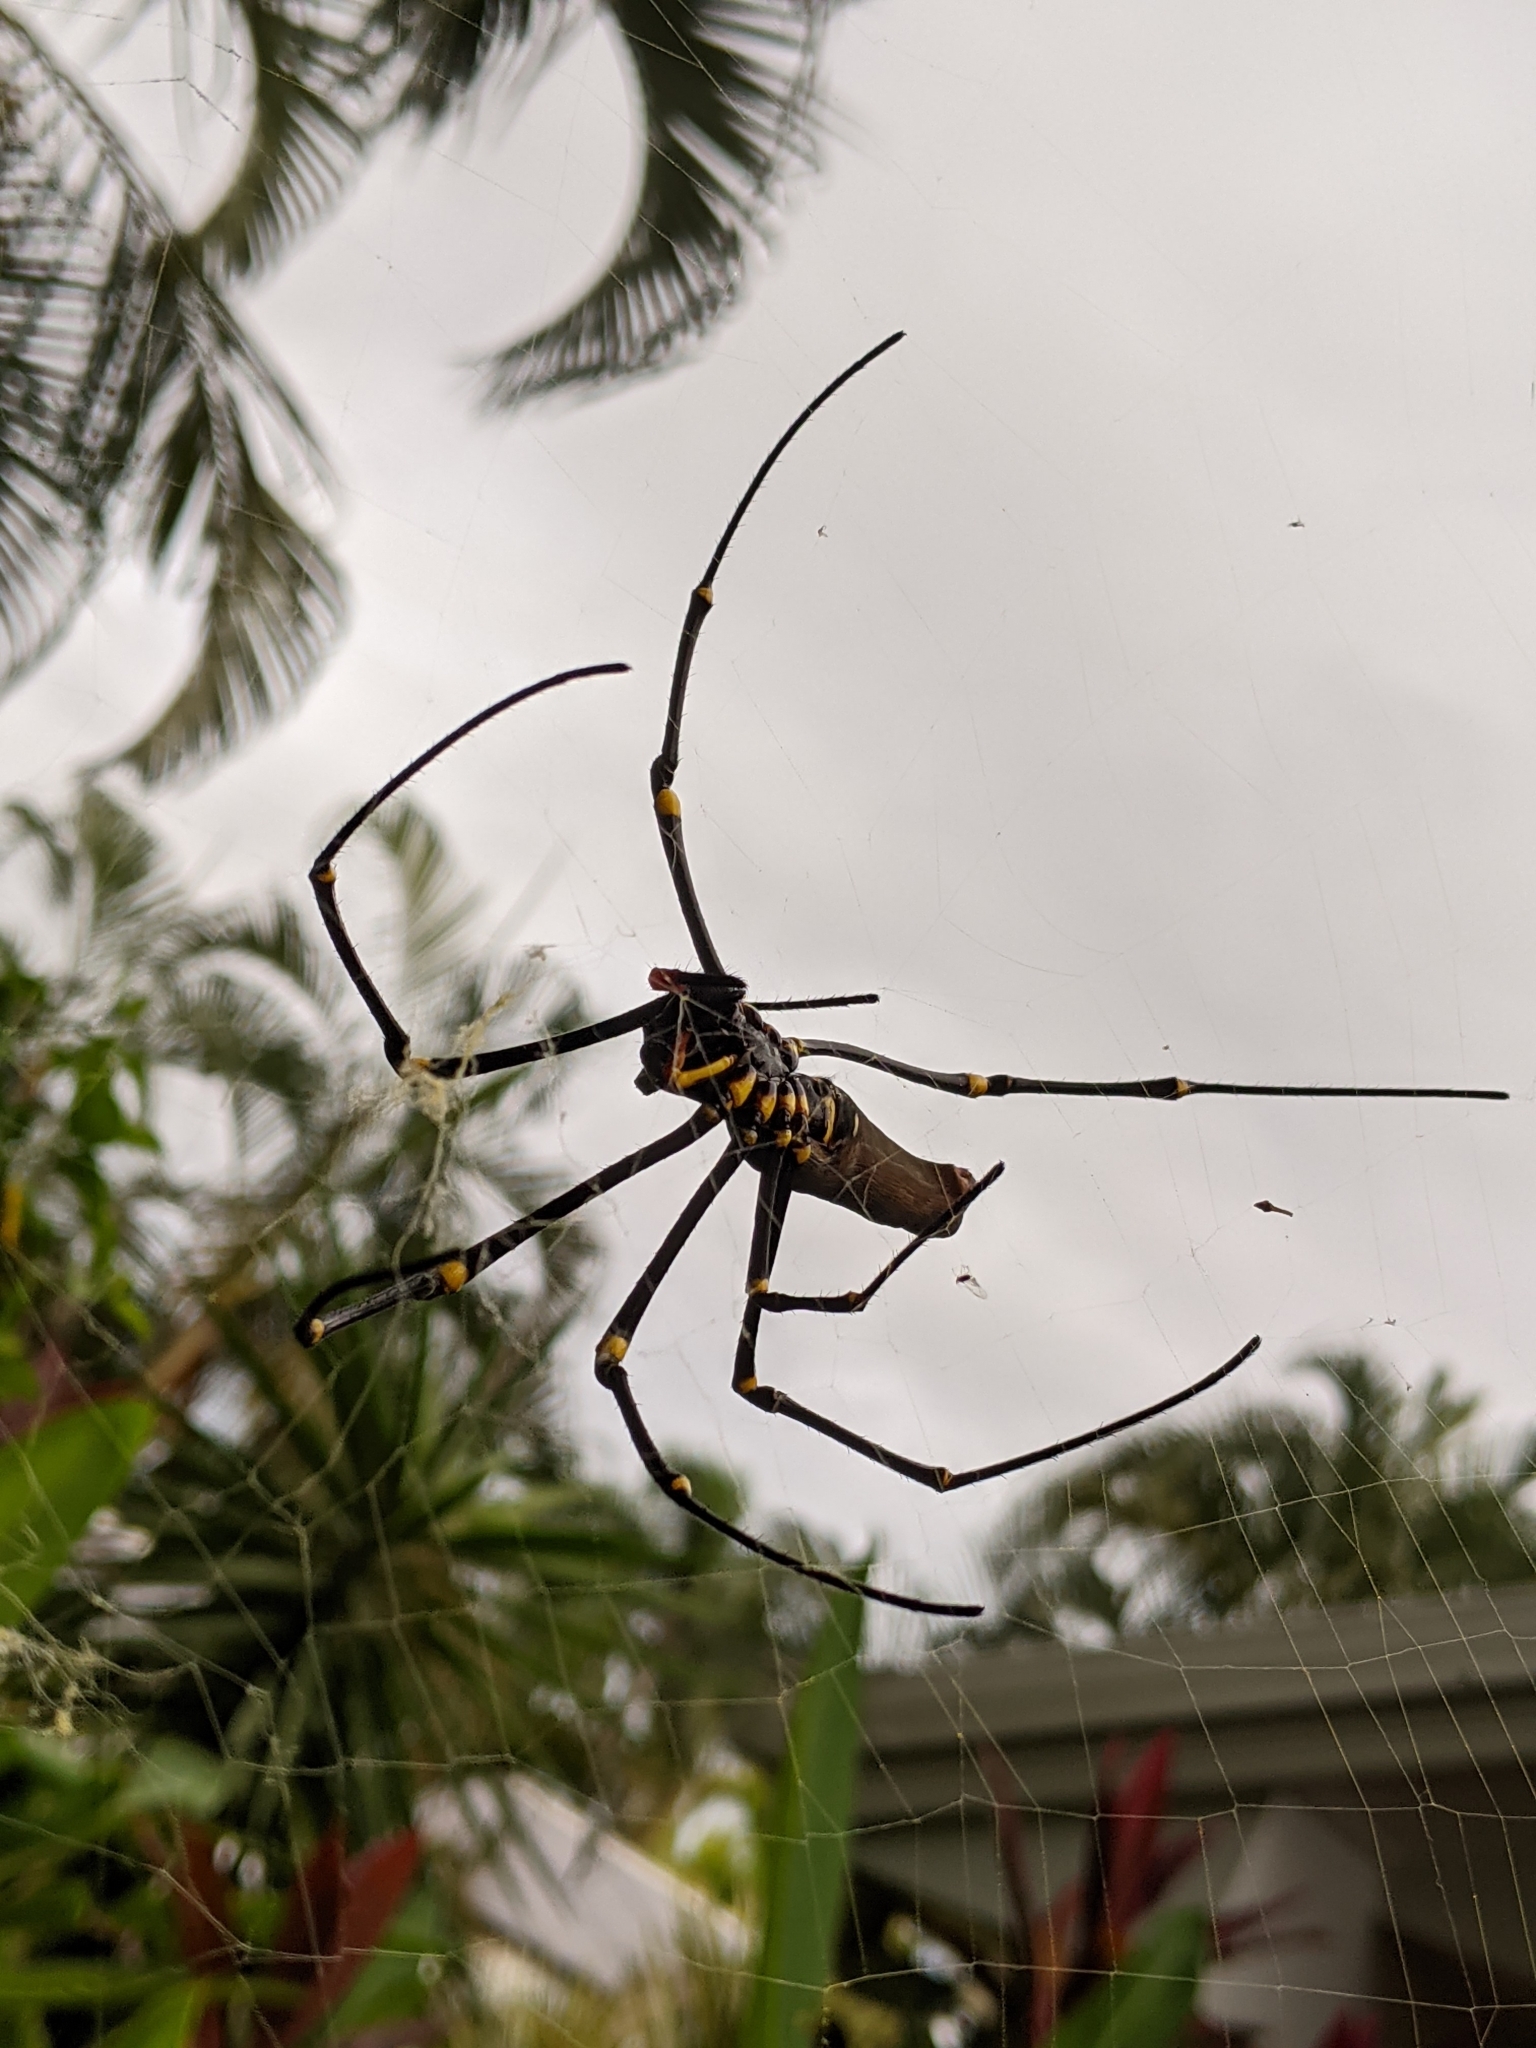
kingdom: Animalia
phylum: Arthropoda
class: Arachnida
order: Araneae
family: Araneidae
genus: Nephila
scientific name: Nephila pilipes
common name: Giant golden orb weaver
